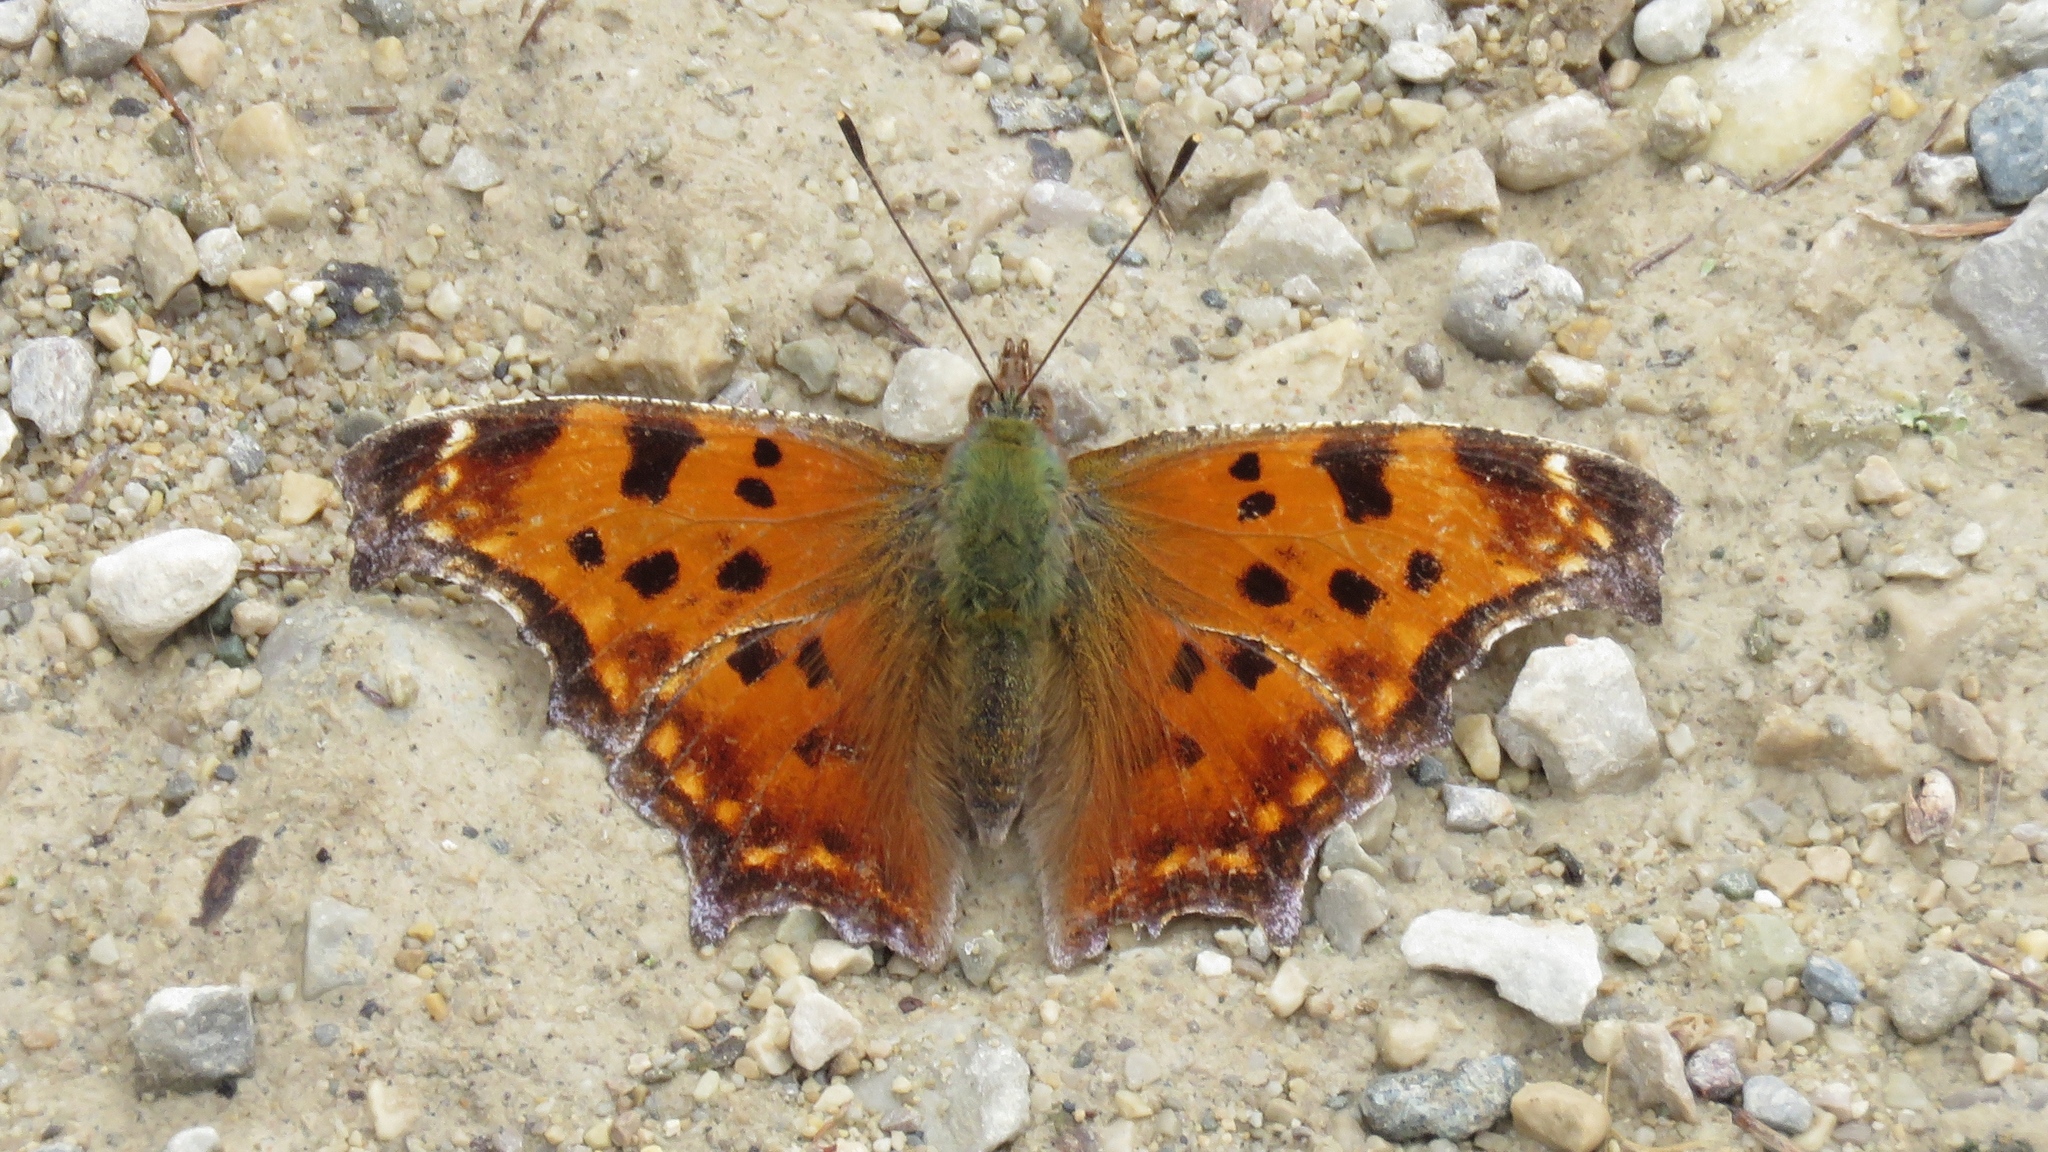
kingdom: Animalia
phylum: Arthropoda
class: Insecta
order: Lepidoptera
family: Nymphalidae
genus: Polygonia
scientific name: Polygonia comma
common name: Eastern comma
